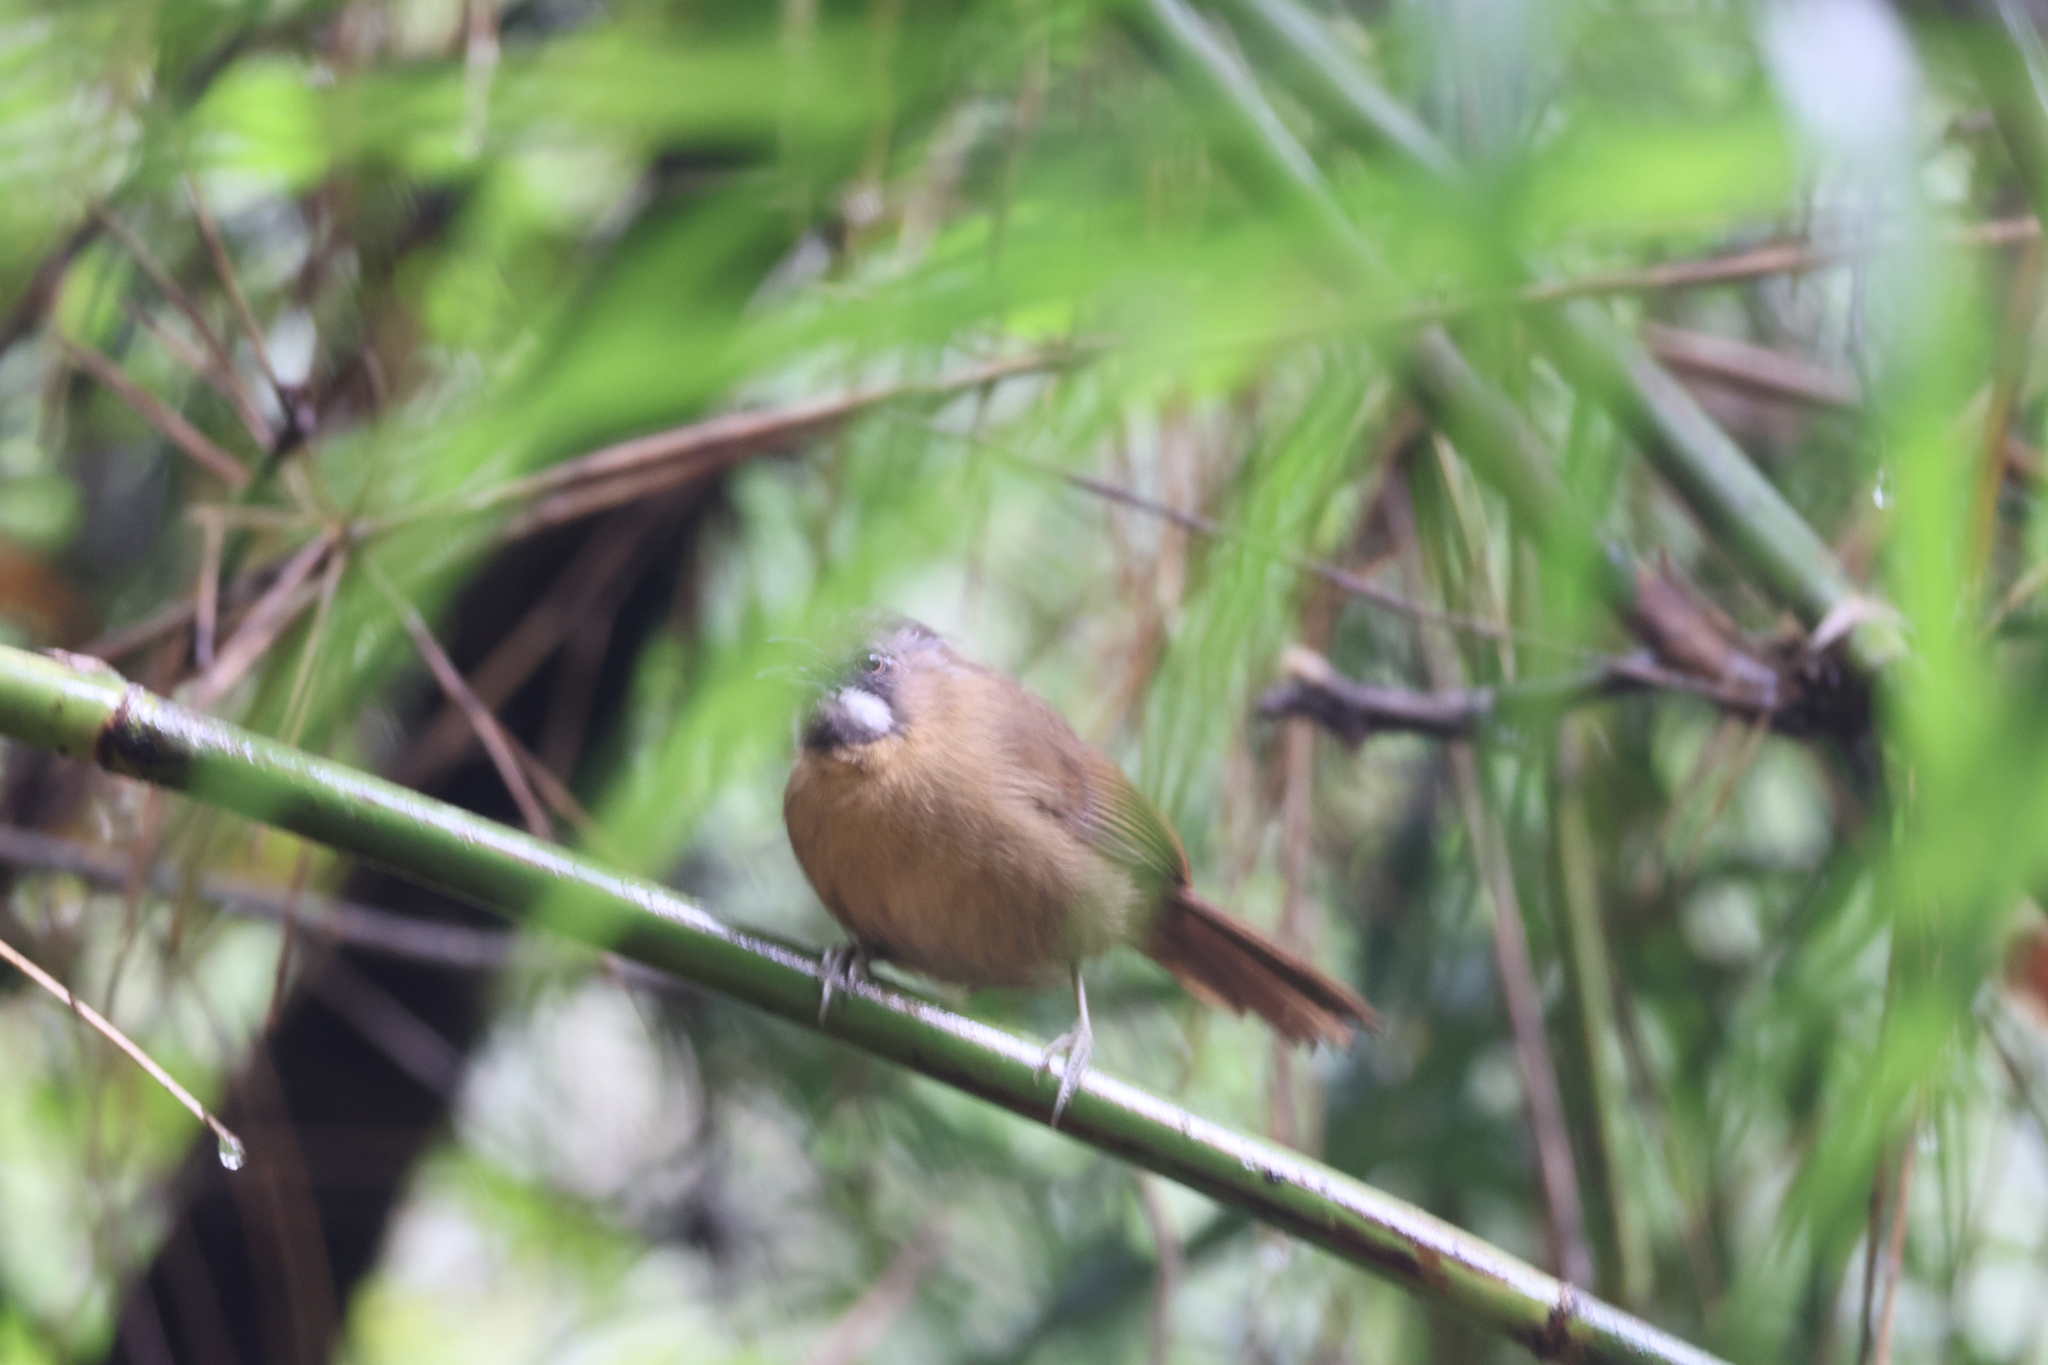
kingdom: Animalia
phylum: Chordata
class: Aves
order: Passeriformes
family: Timaliidae
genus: Stachyris
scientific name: Stachyris nigriceps
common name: Grey-throated babbler
